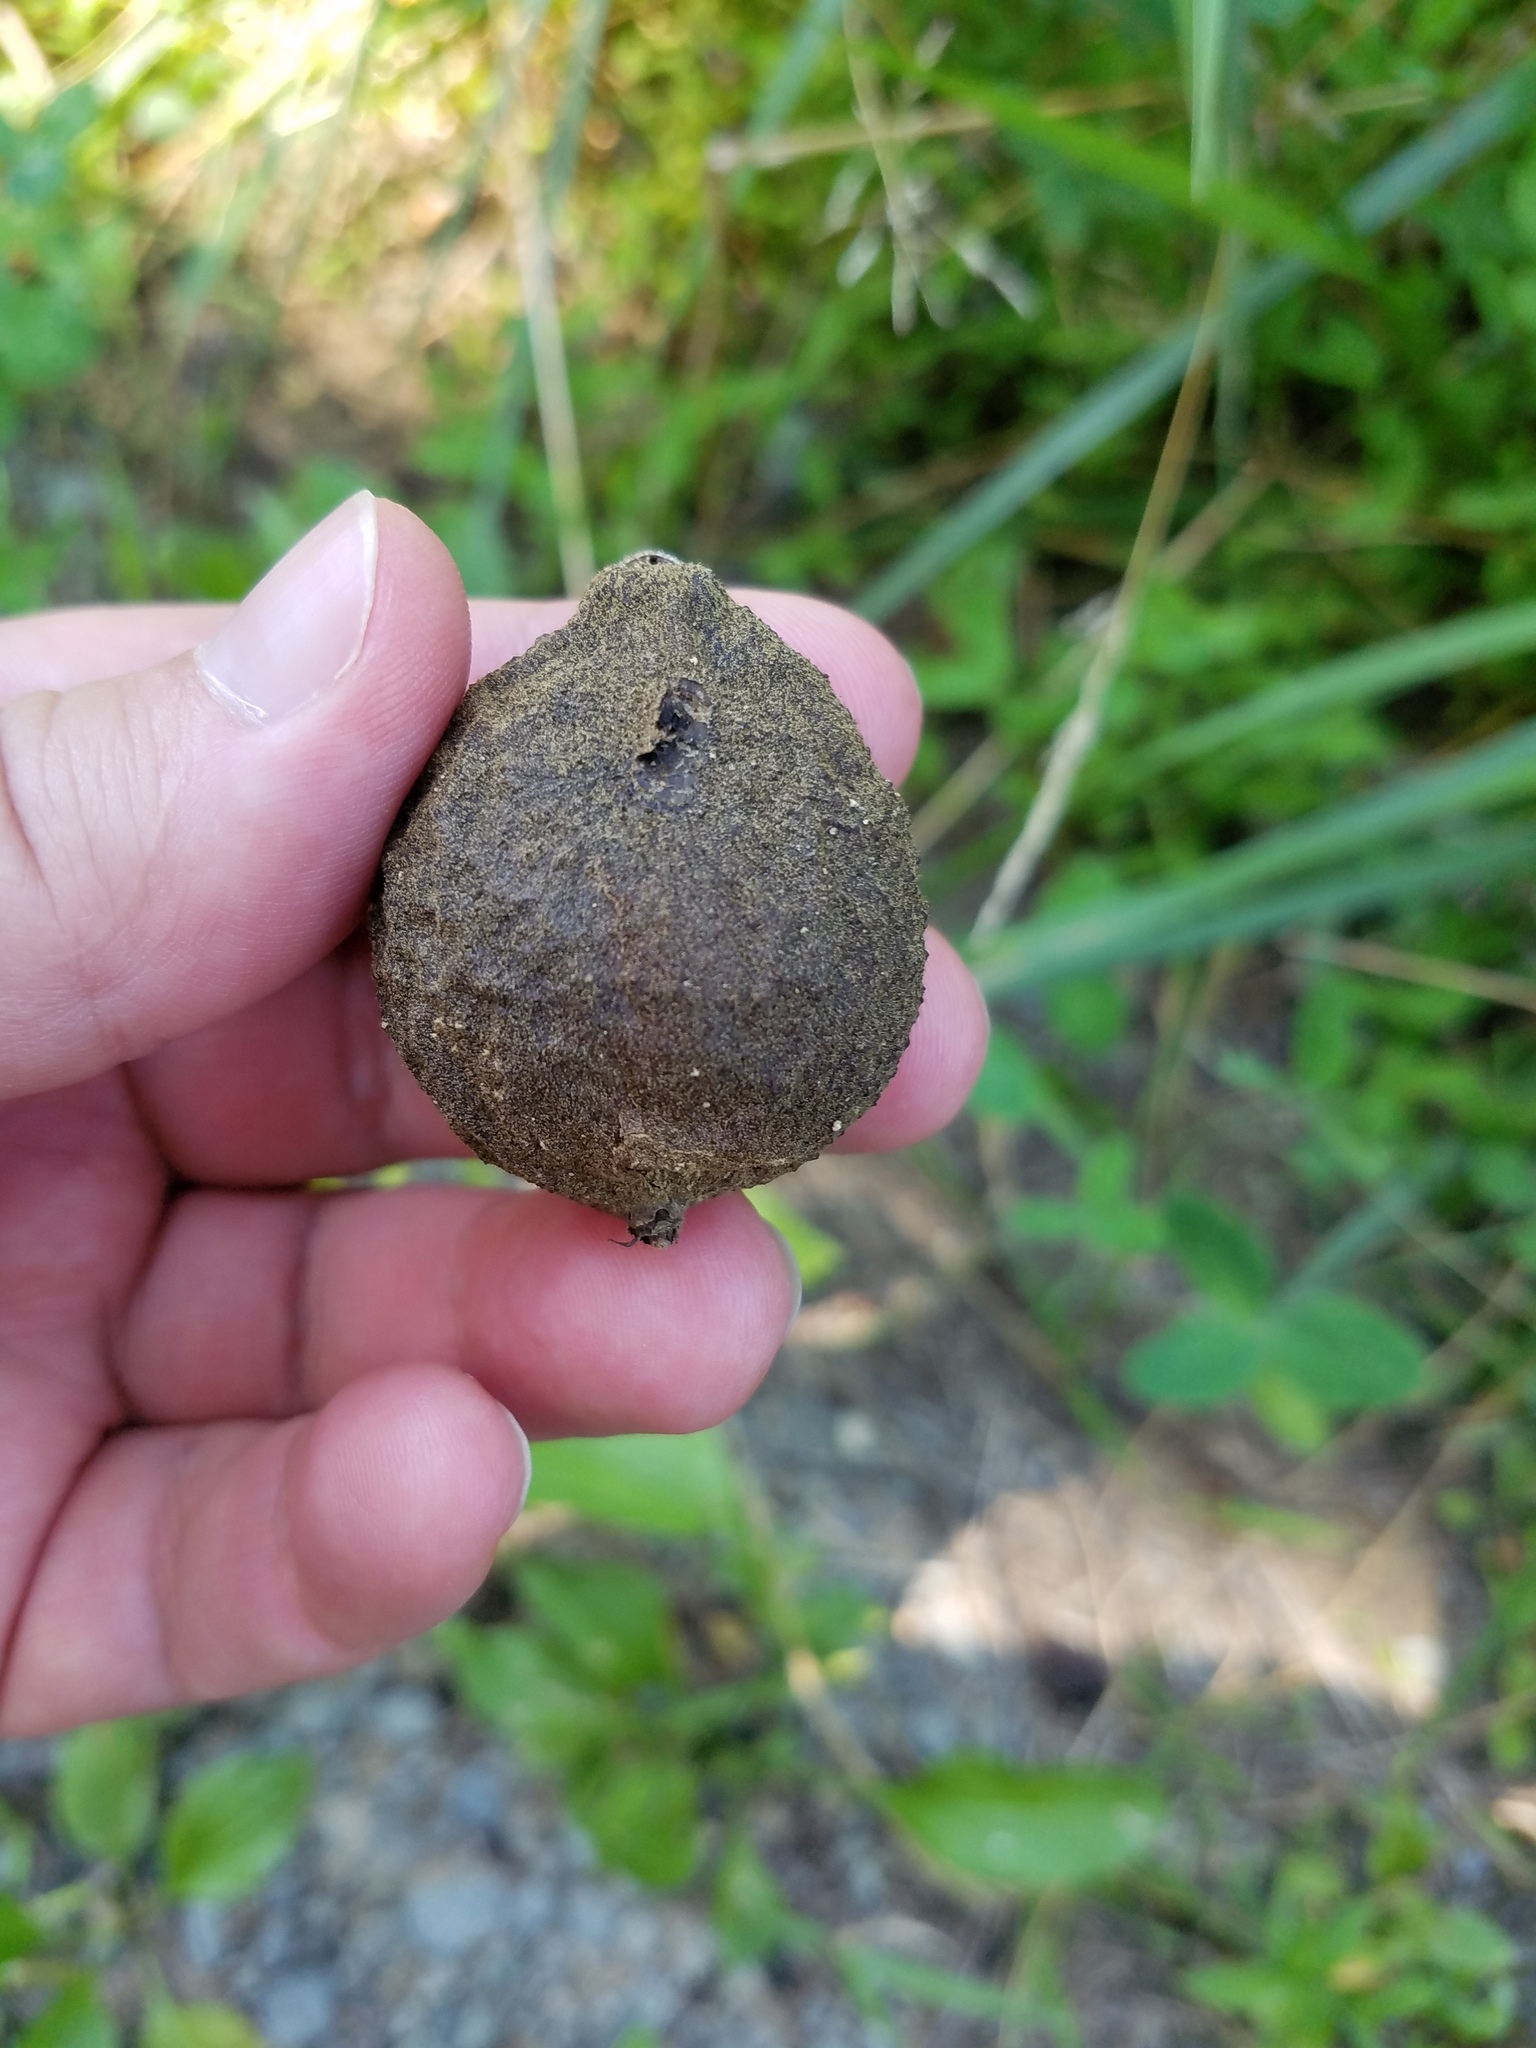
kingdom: Plantae
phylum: Tracheophyta
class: Magnoliopsida
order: Fagales
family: Juglandaceae
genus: Juglans
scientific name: Juglans nigra
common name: Black walnut
